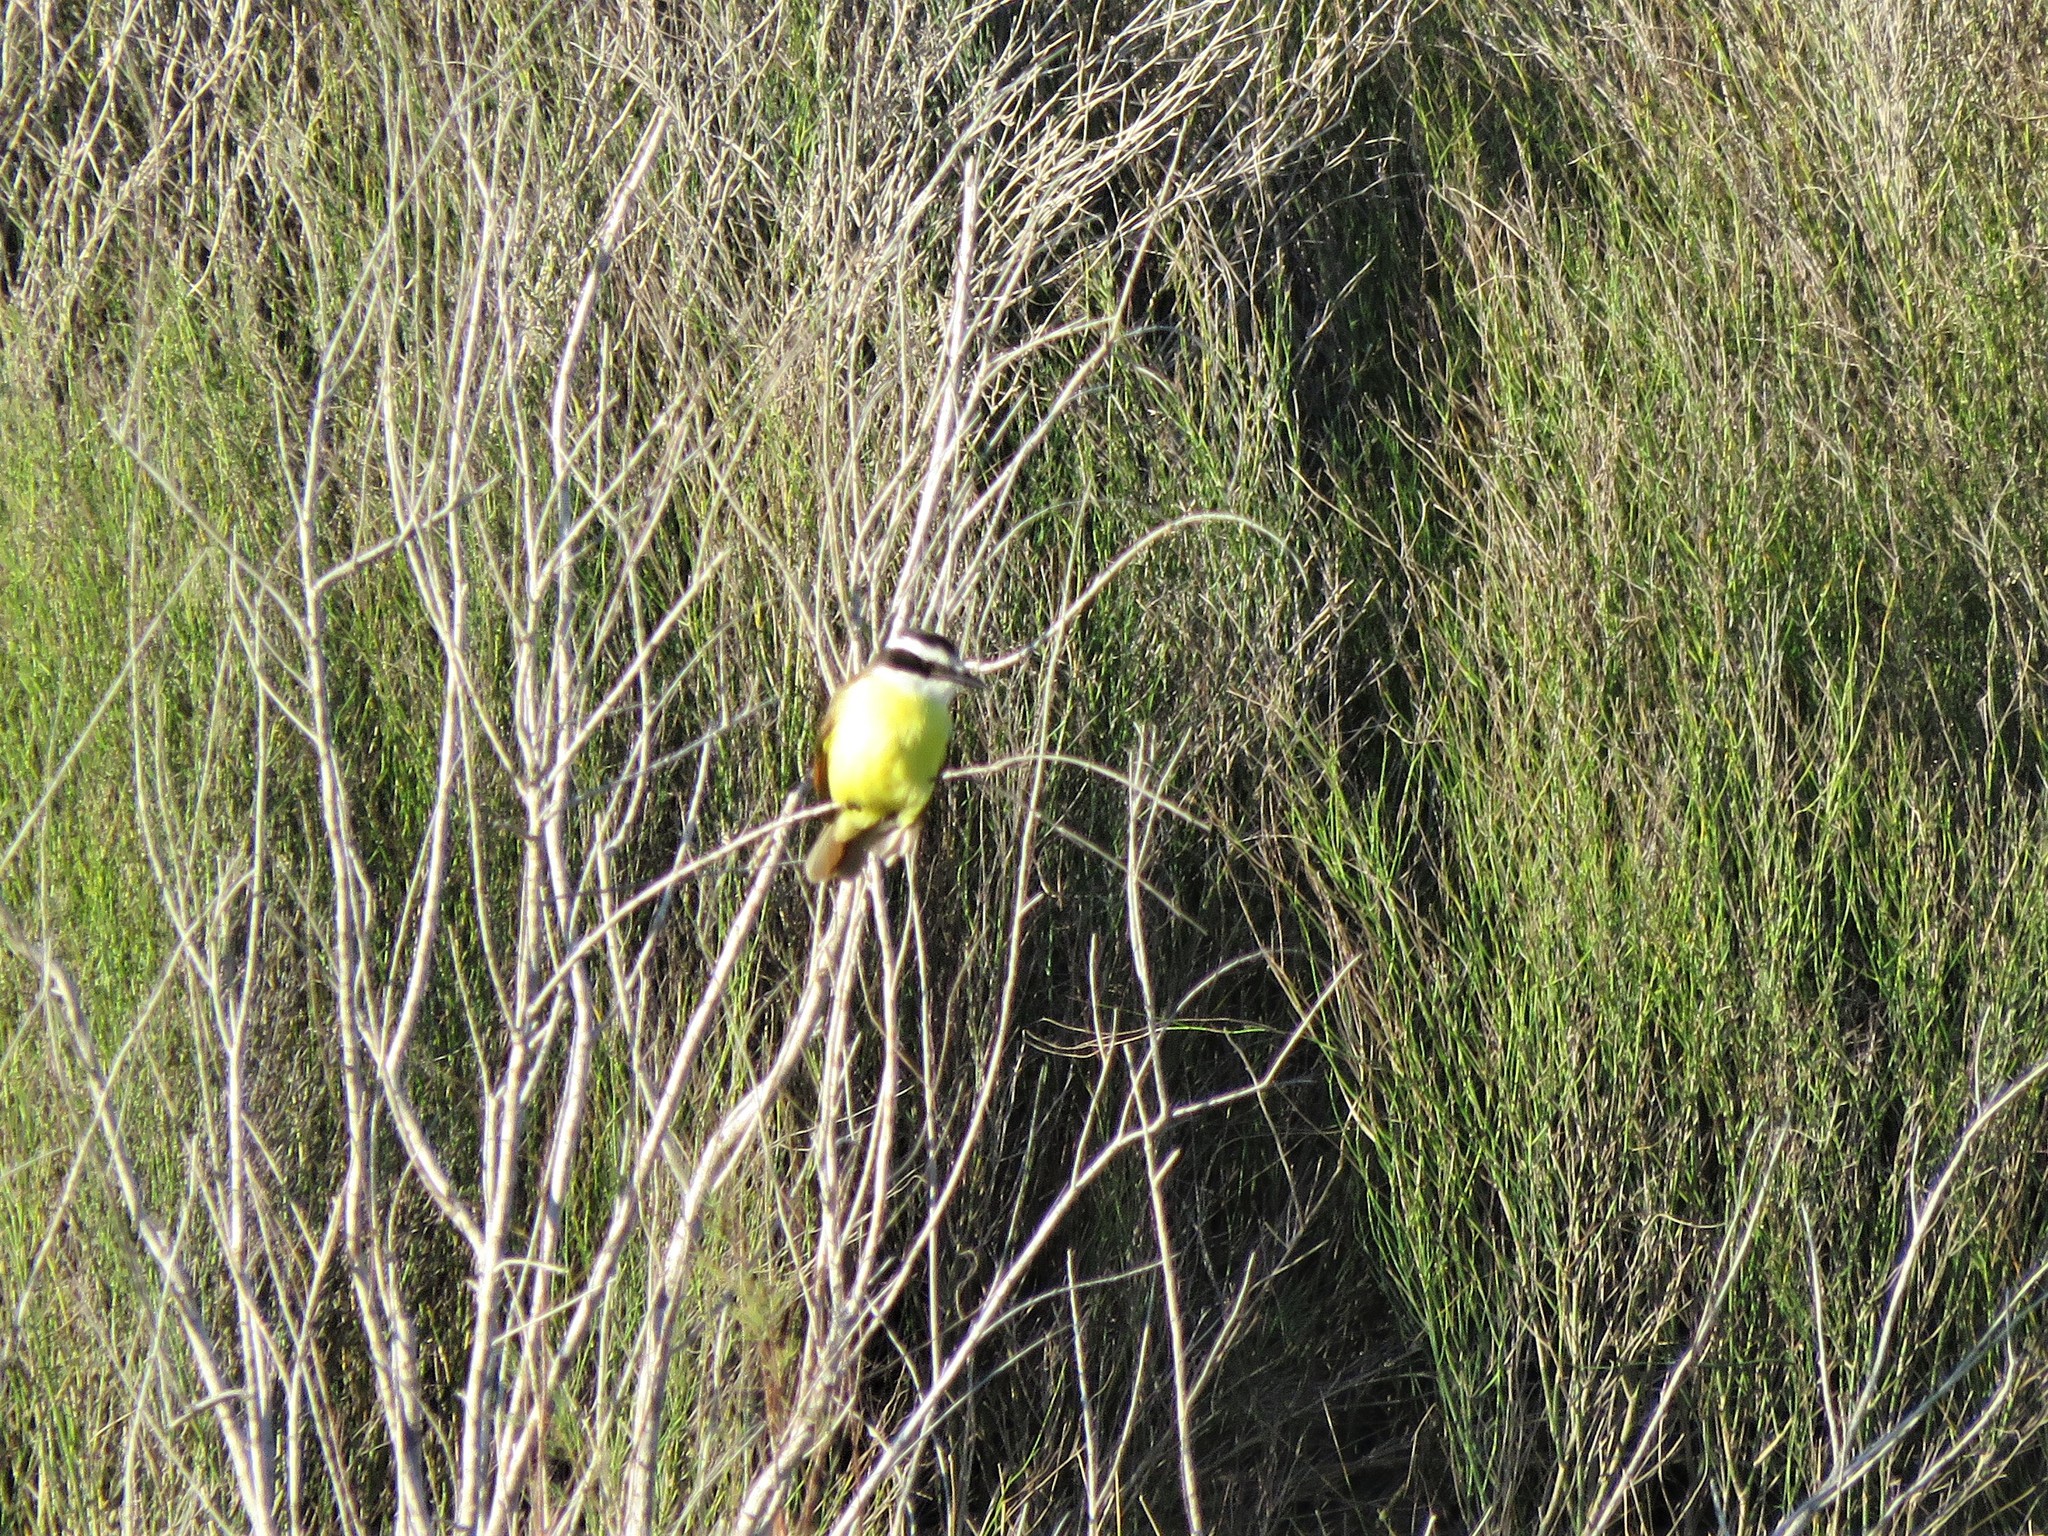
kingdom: Animalia
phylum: Chordata
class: Aves
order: Passeriformes
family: Tyrannidae
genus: Pitangus
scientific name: Pitangus sulphuratus
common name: Great kiskadee
